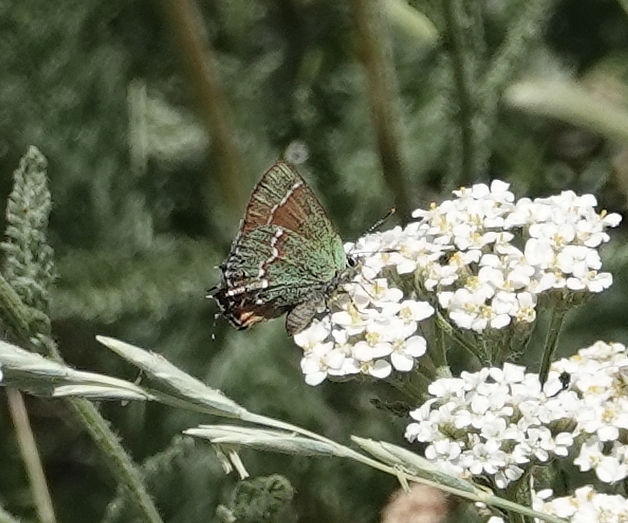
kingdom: Animalia
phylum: Arthropoda
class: Insecta
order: Lepidoptera
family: Lycaenidae
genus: Mitoura
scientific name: Mitoura gryneus
